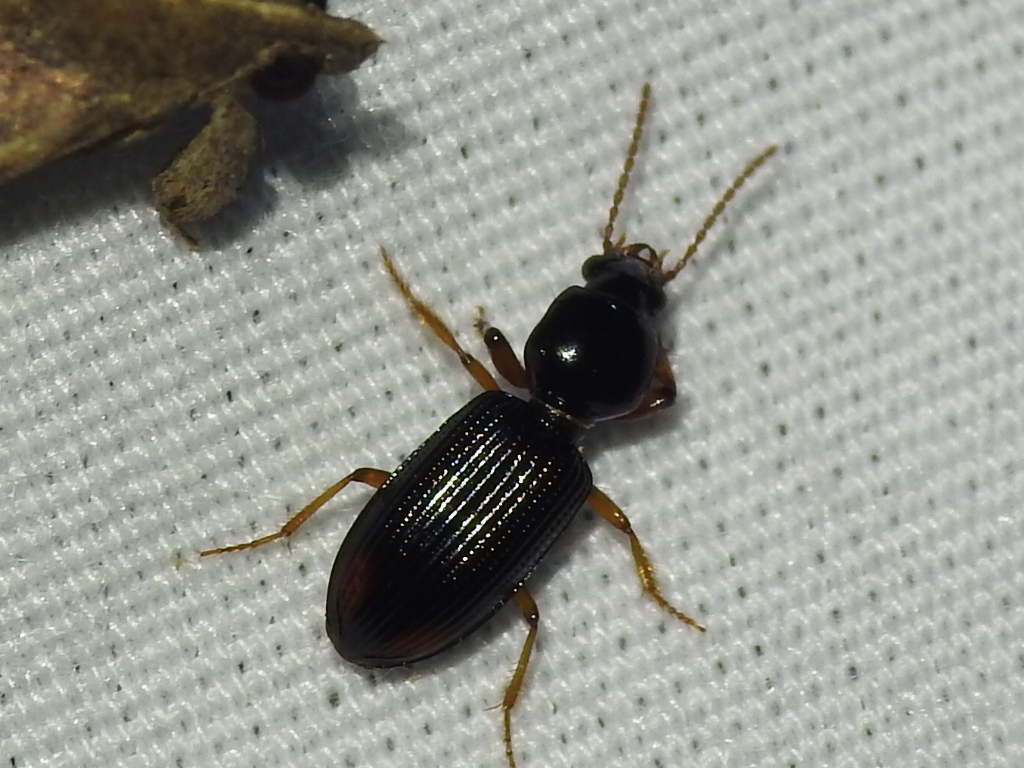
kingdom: Animalia
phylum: Arthropoda
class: Insecta
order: Coleoptera
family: Carabidae
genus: Aspidoglossa
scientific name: Aspidoglossa subangulata
